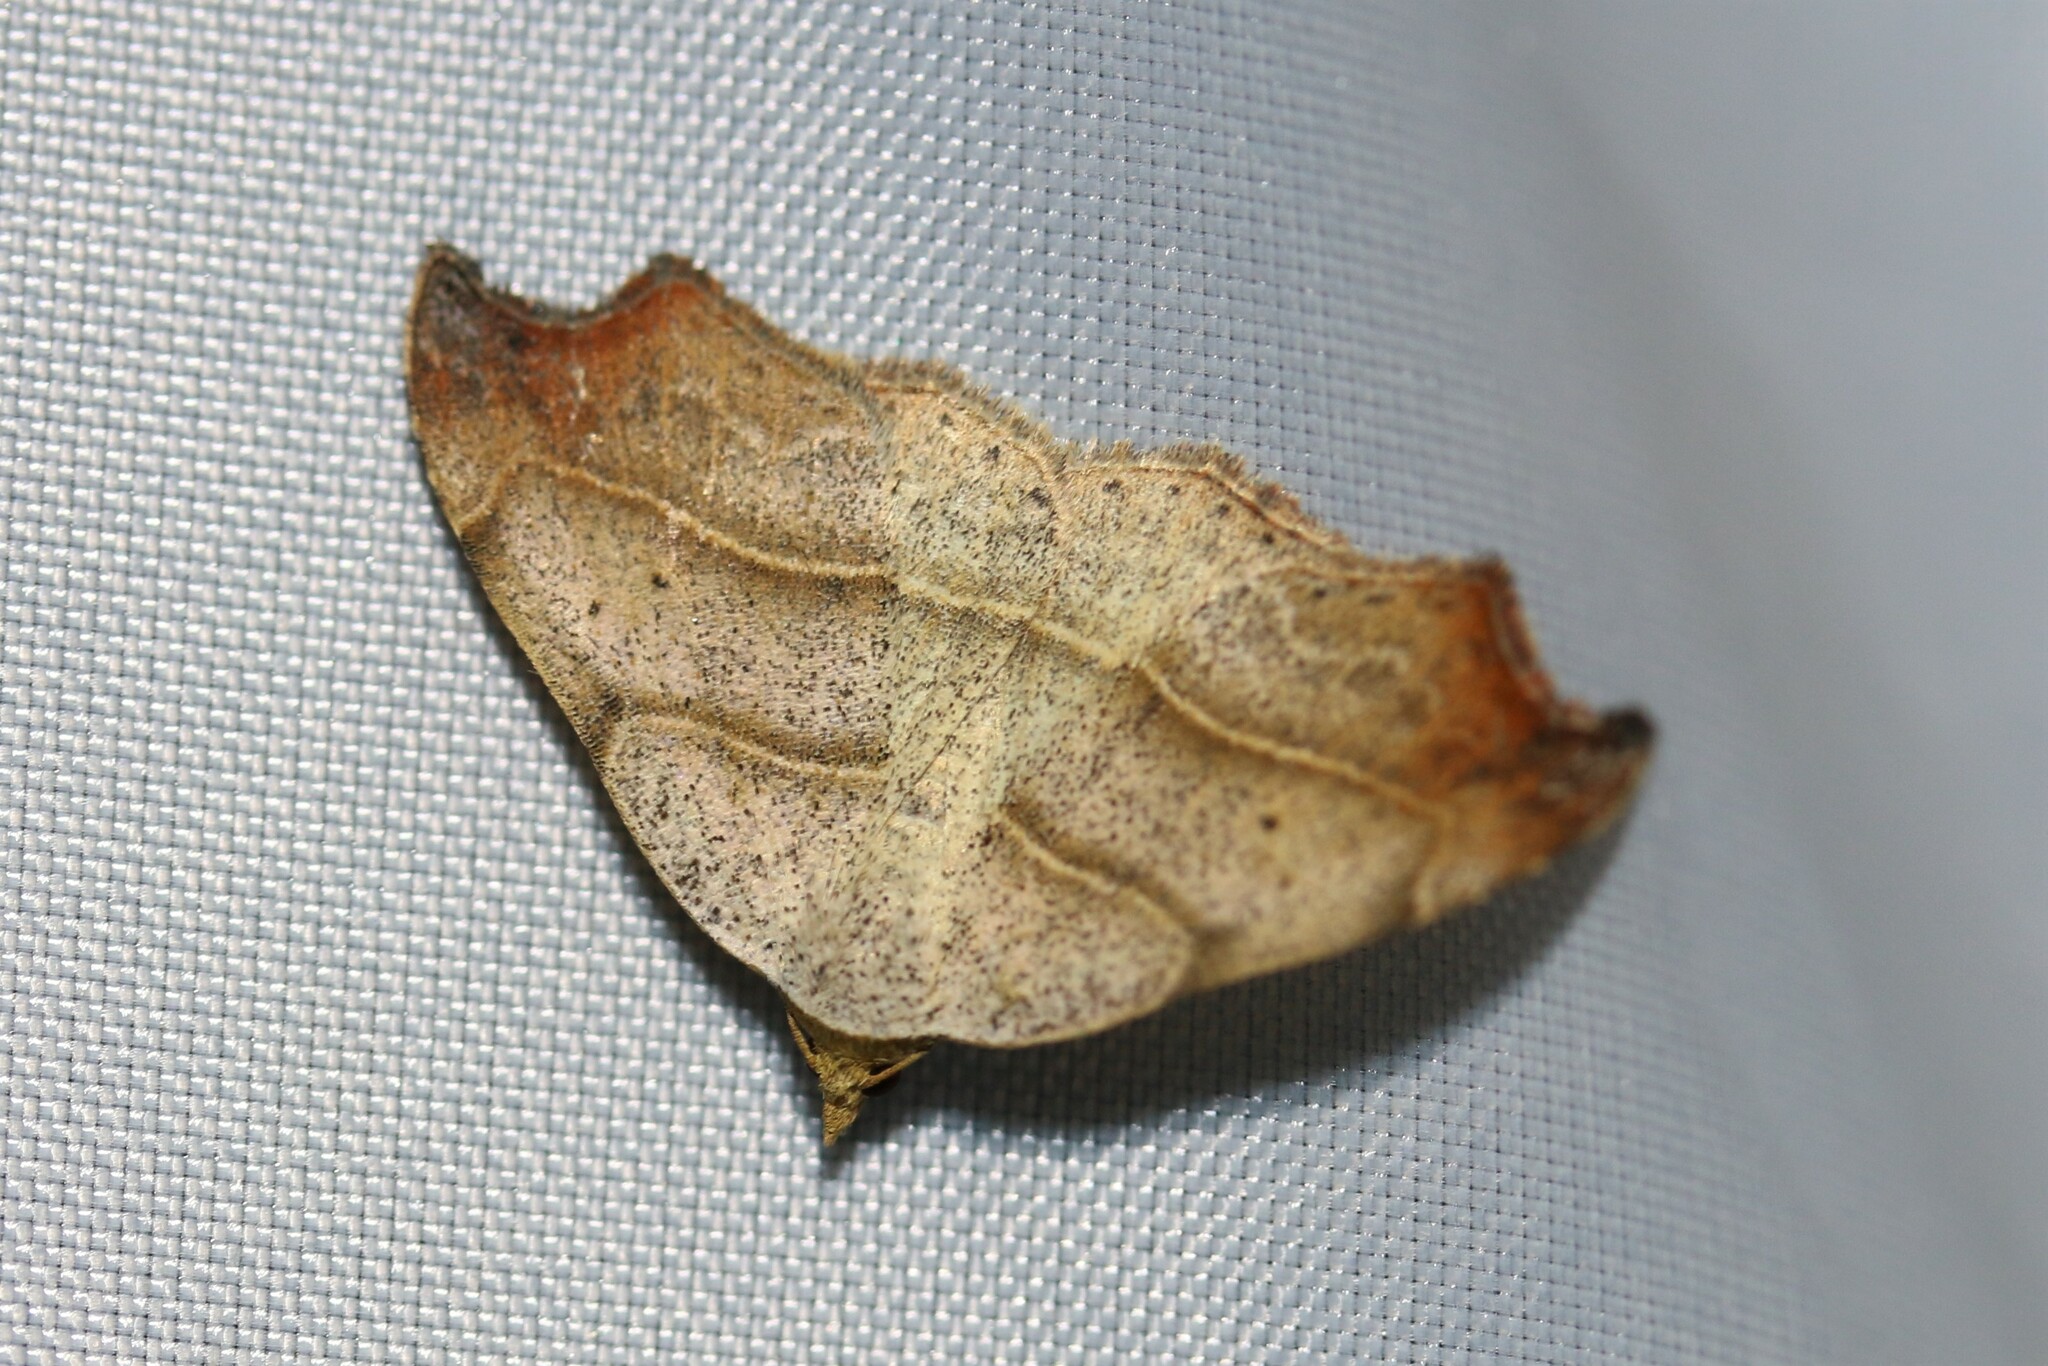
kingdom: Animalia
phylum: Arthropoda
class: Insecta
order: Lepidoptera
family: Erebidae
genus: Laspeyria
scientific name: Laspeyria flexula
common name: Beautiful hook-tip
